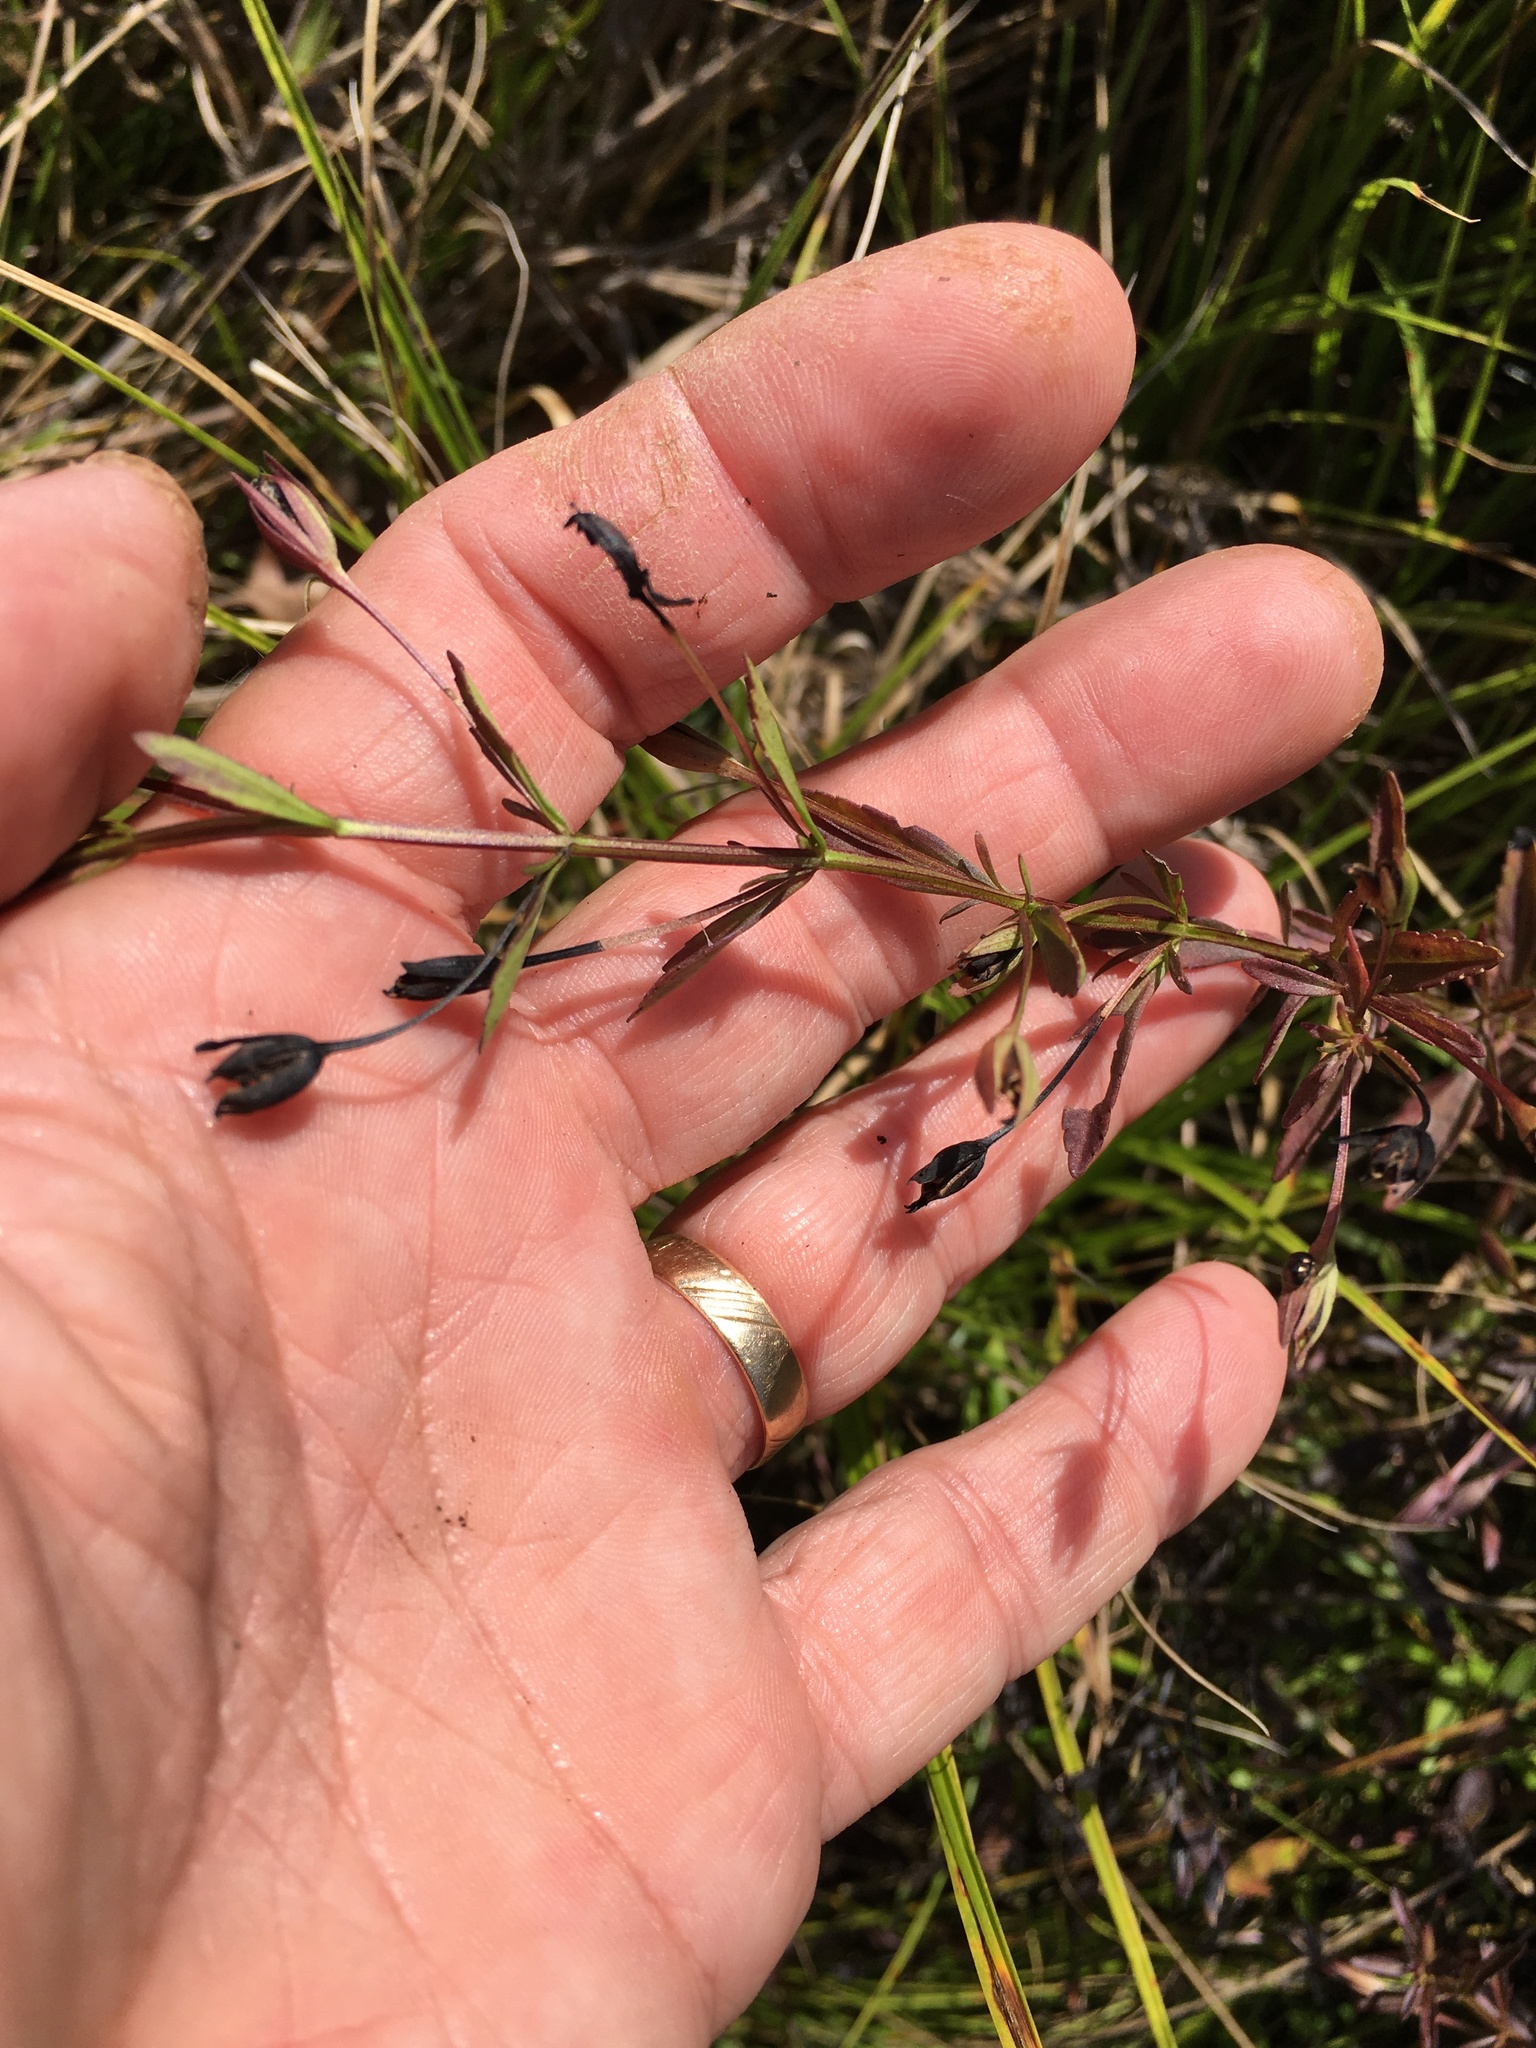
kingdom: Plantae
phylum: Tracheophyta
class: Magnoliopsida
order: Lamiales
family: Plantaginaceae
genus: Mecardonia
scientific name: Mecardonia acuminata
